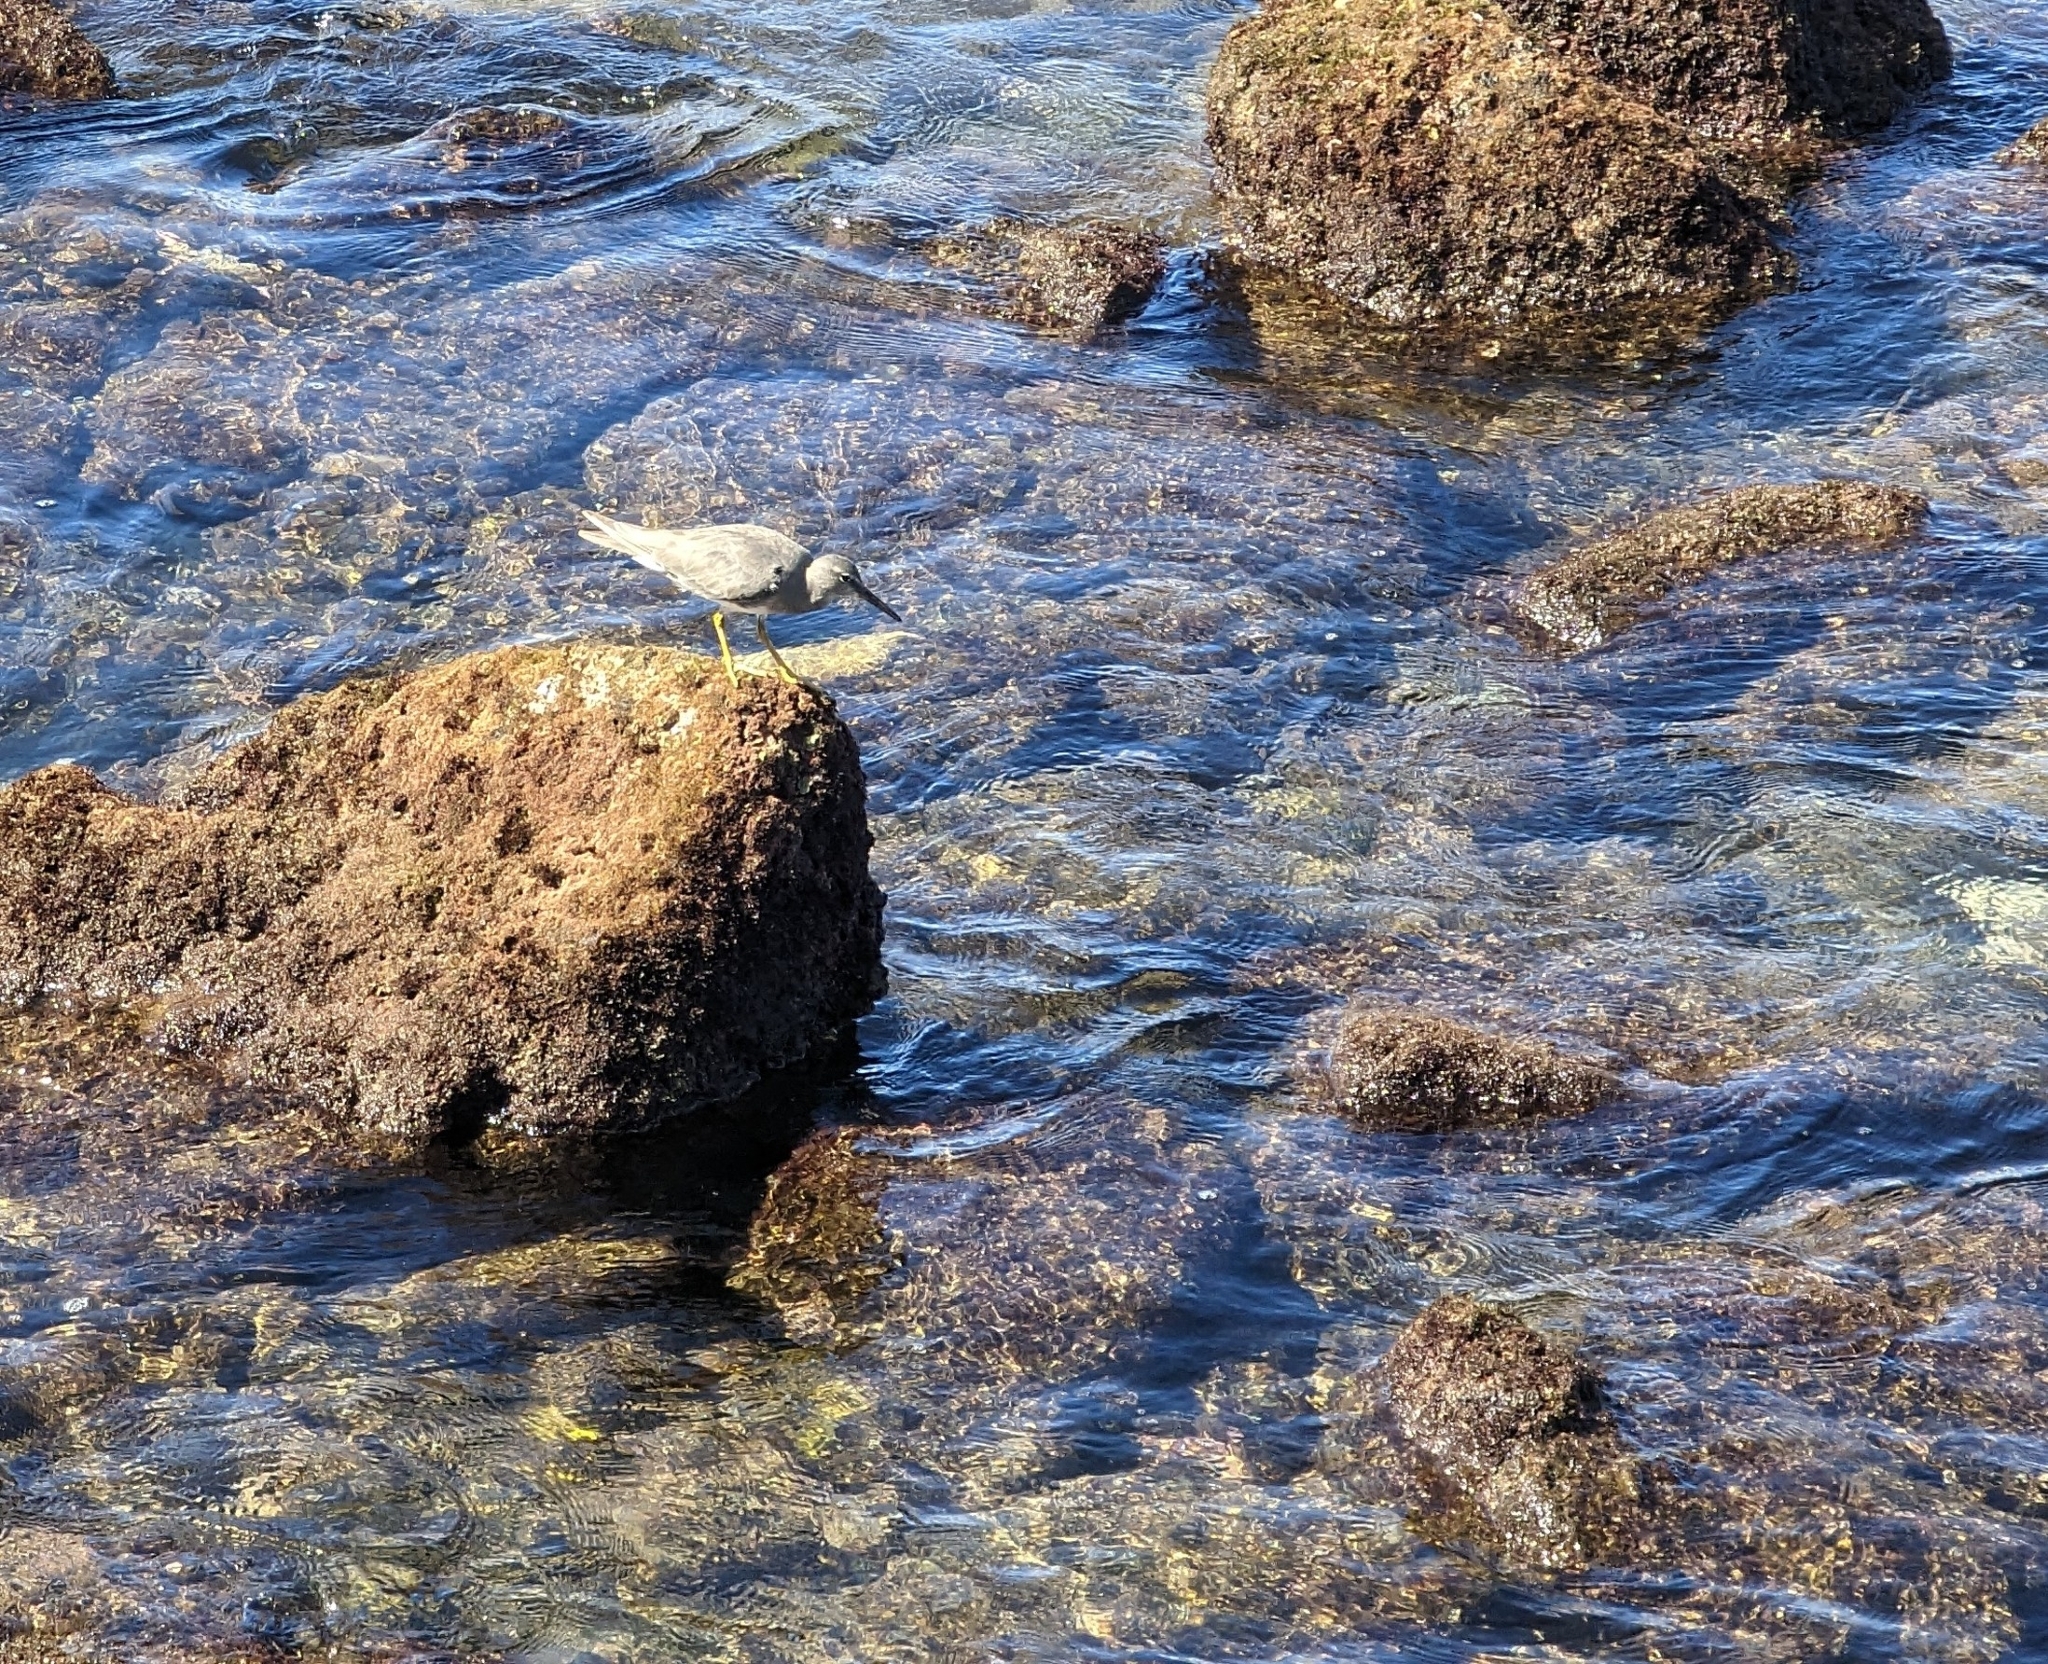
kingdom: Animalia
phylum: Chordata
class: Aves
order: Charadriiformes
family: Scolopacidae
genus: Tringa
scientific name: Tringa incana
